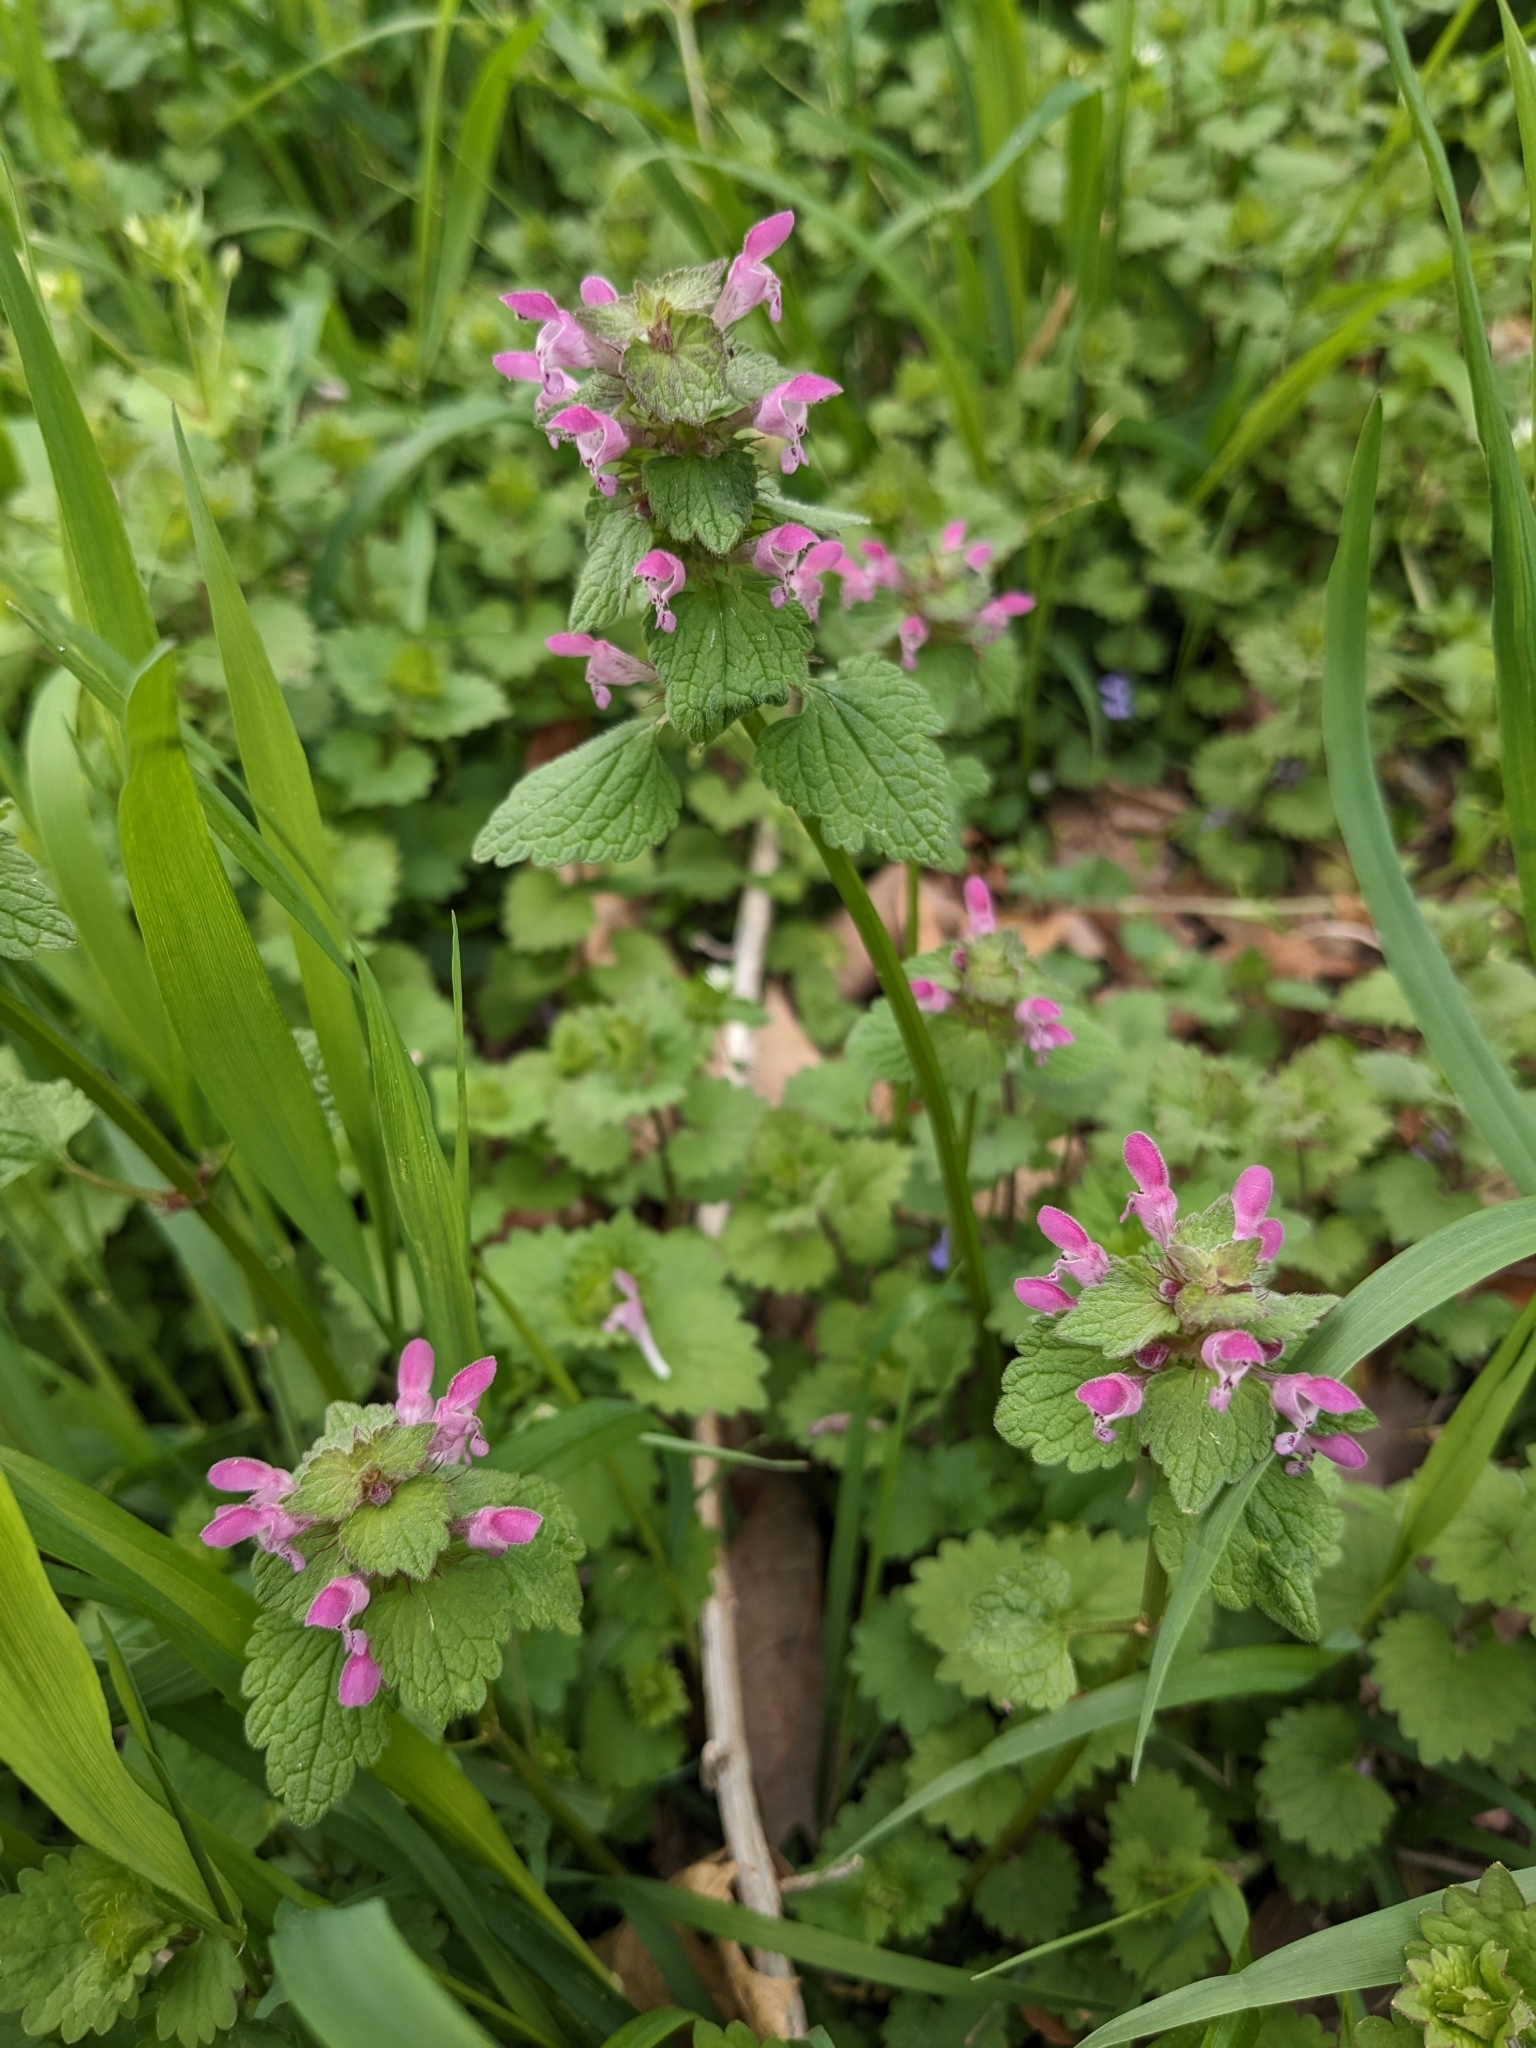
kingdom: Plantae
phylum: Tracheophyta
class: Magnoliopsida
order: Lamiales
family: Lamiaceae
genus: Lamium
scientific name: Lamium amplexicaule
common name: Henbit dead-nettle
